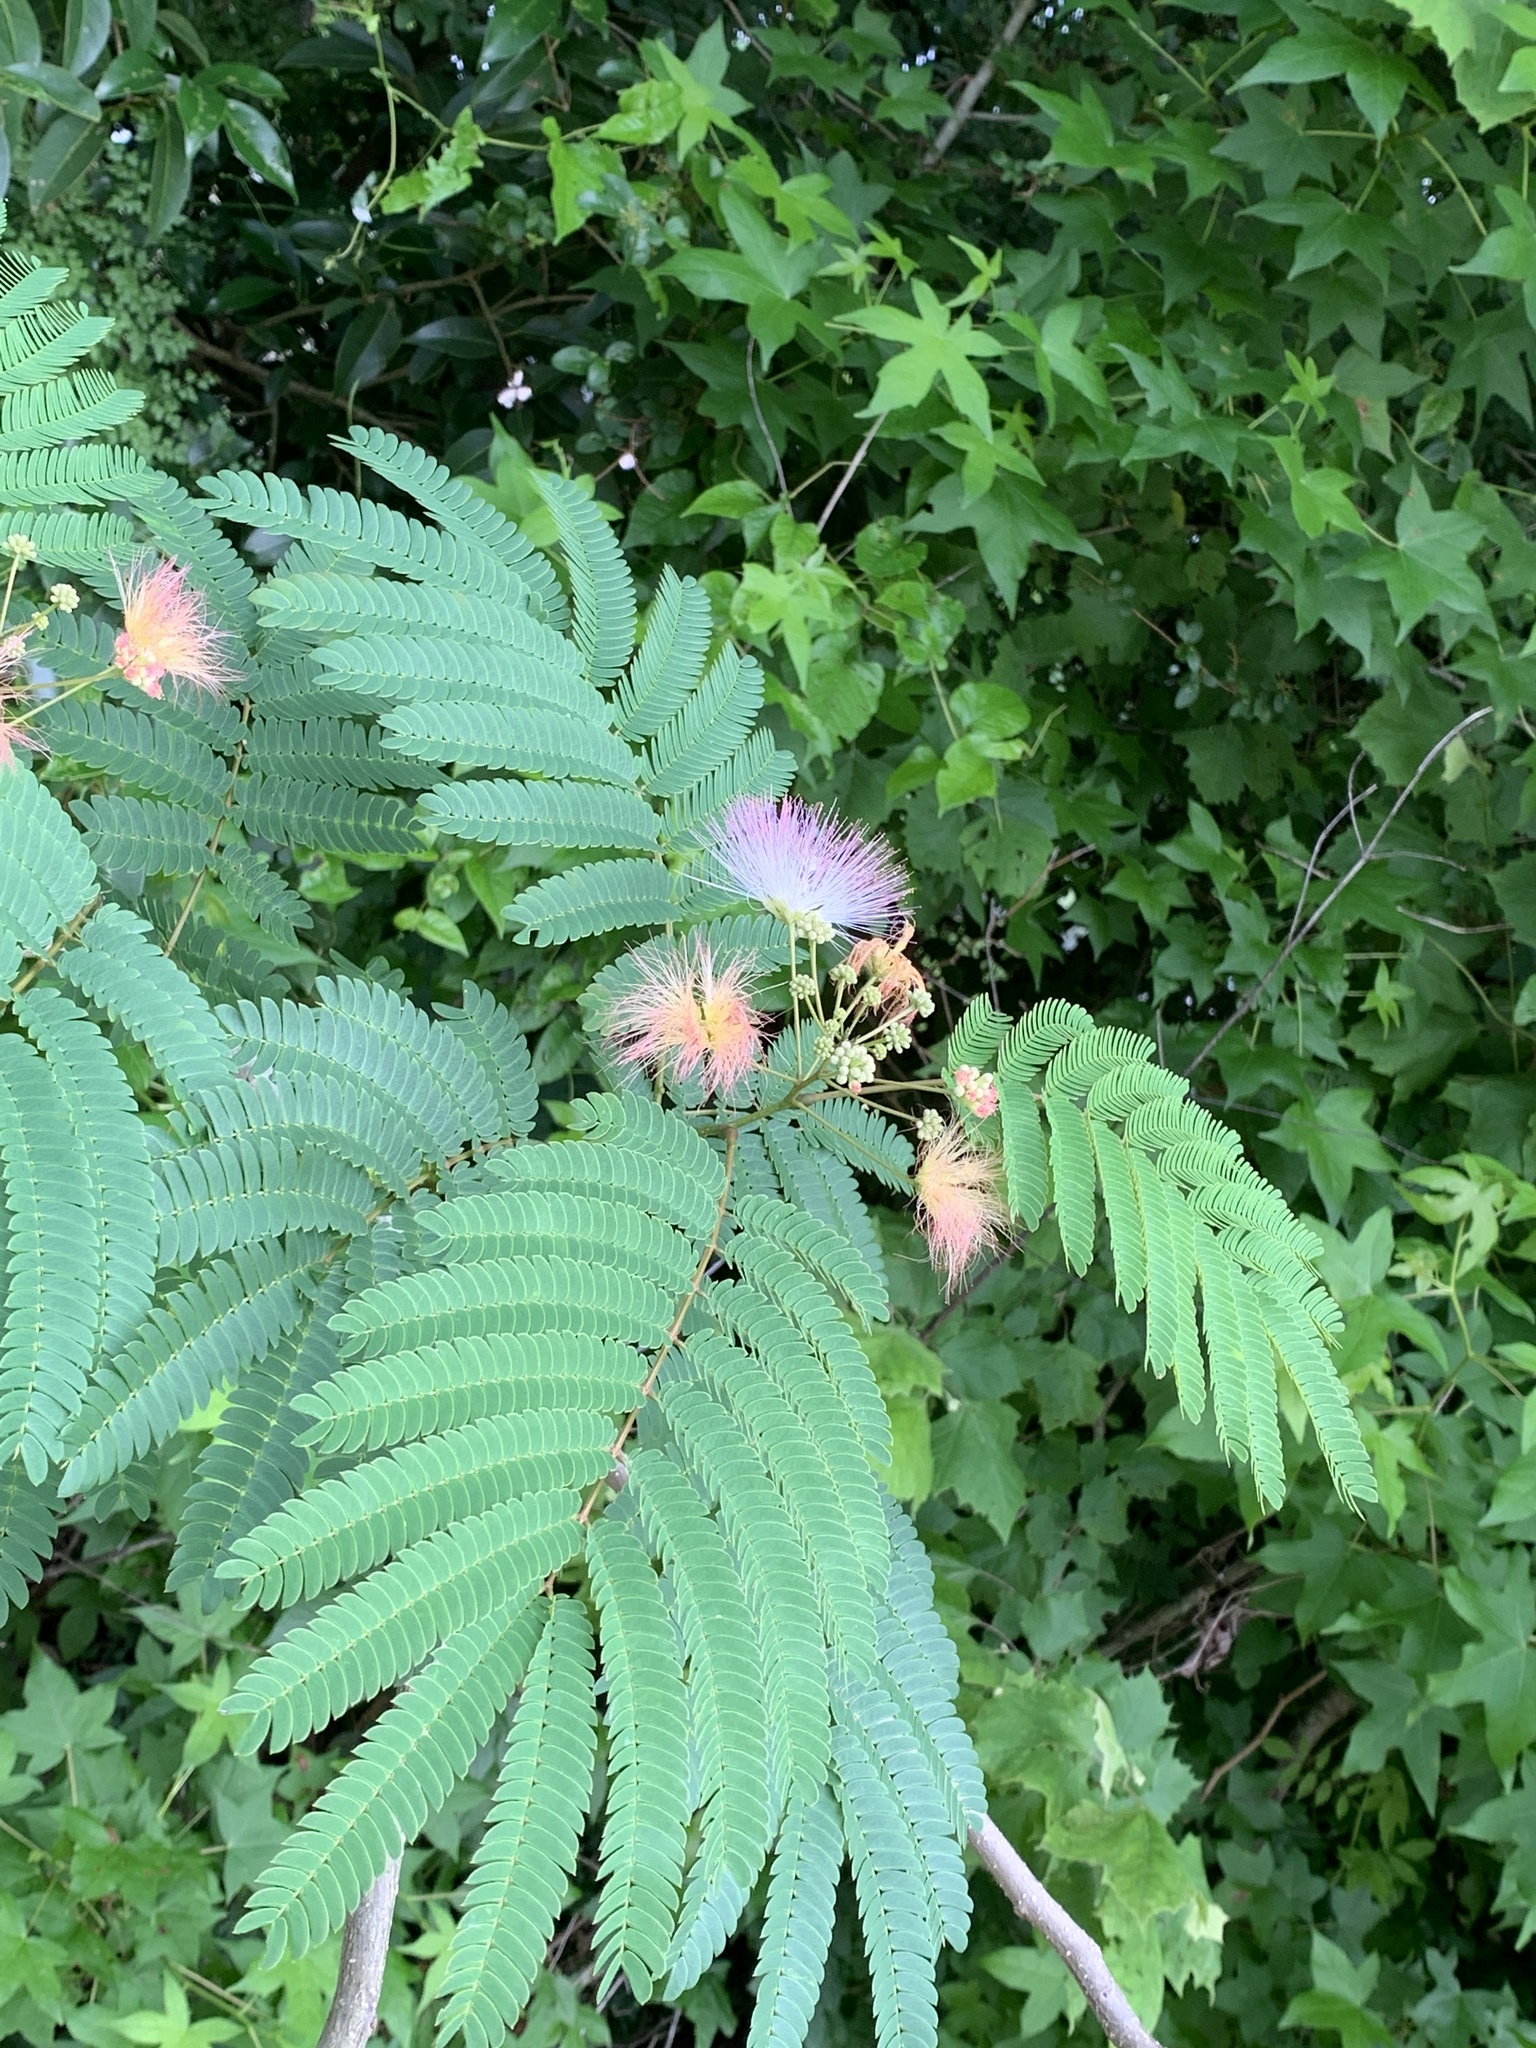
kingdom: Plantae
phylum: Tracheophyta
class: Magnoliopsida
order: Fabales
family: Fabaceae
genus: Albizia
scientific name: Albizia julibrissin
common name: Silktree
